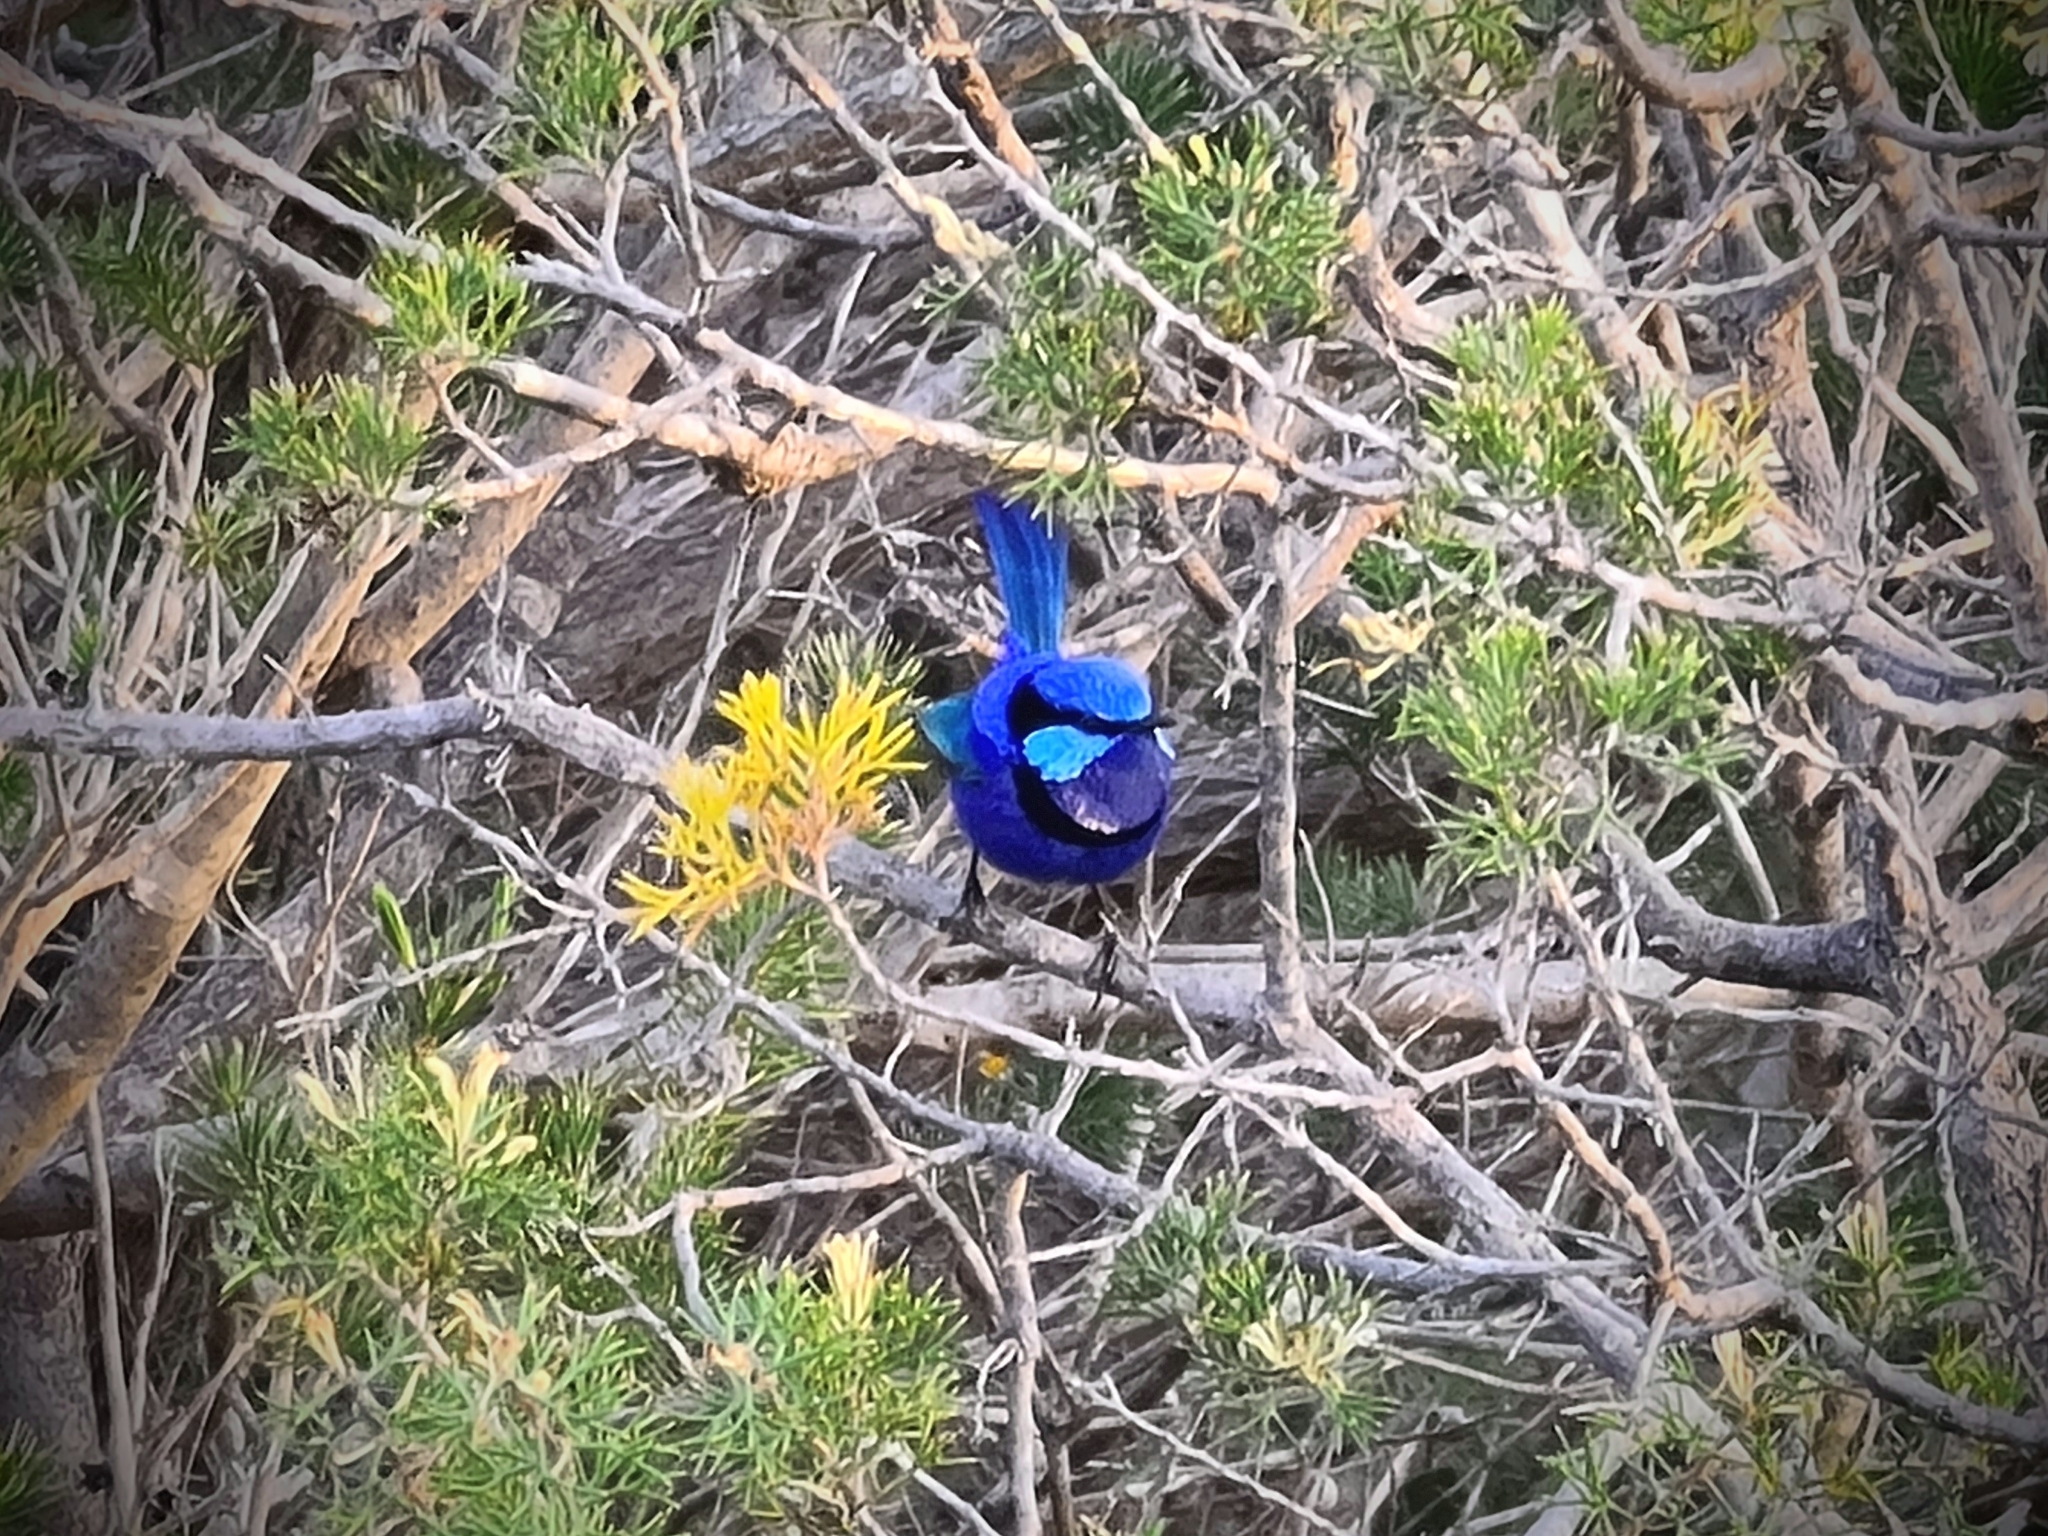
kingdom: Animalia
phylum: Chordata
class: Aves
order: Passeriformes
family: Maluridae
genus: Malurus
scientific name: Malurus splendens
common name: Splendid fairywren
